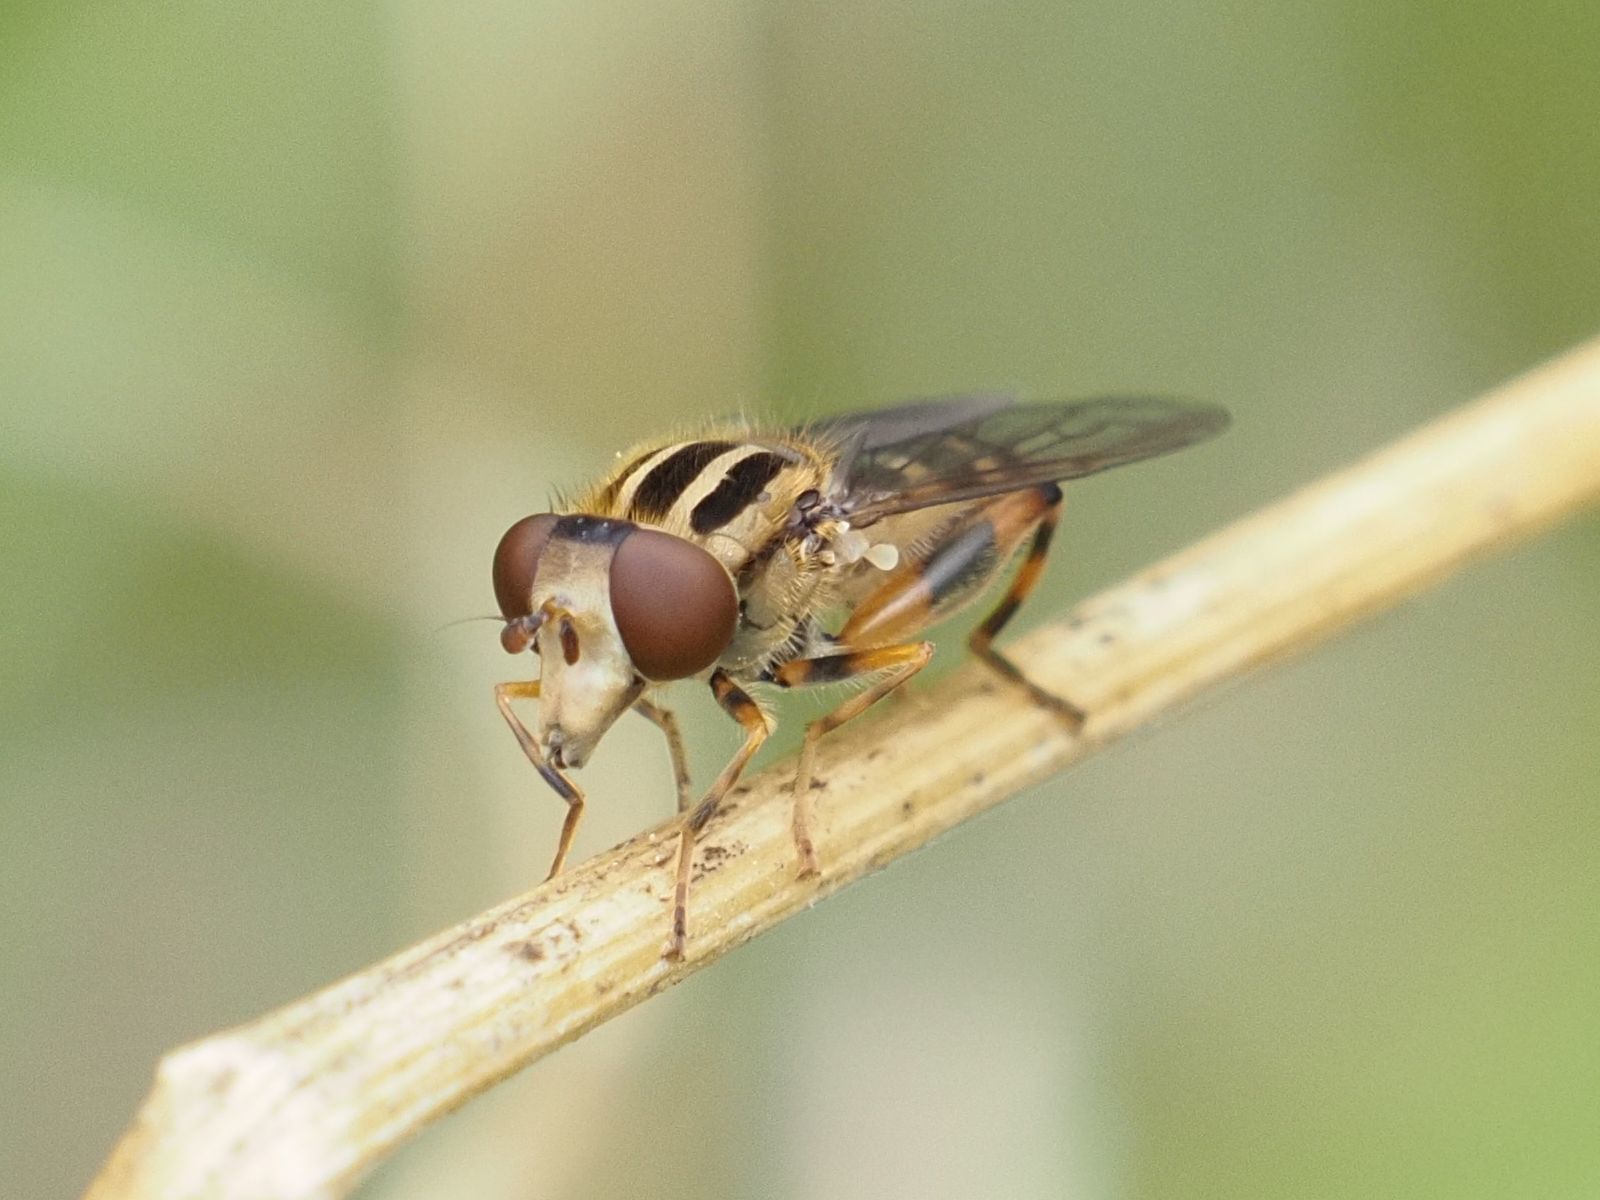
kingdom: Animalia
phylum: Arthropoda
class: Insecta
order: Diptera
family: Syrphidae
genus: Eurimyia
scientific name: Eurimyia lineatus
